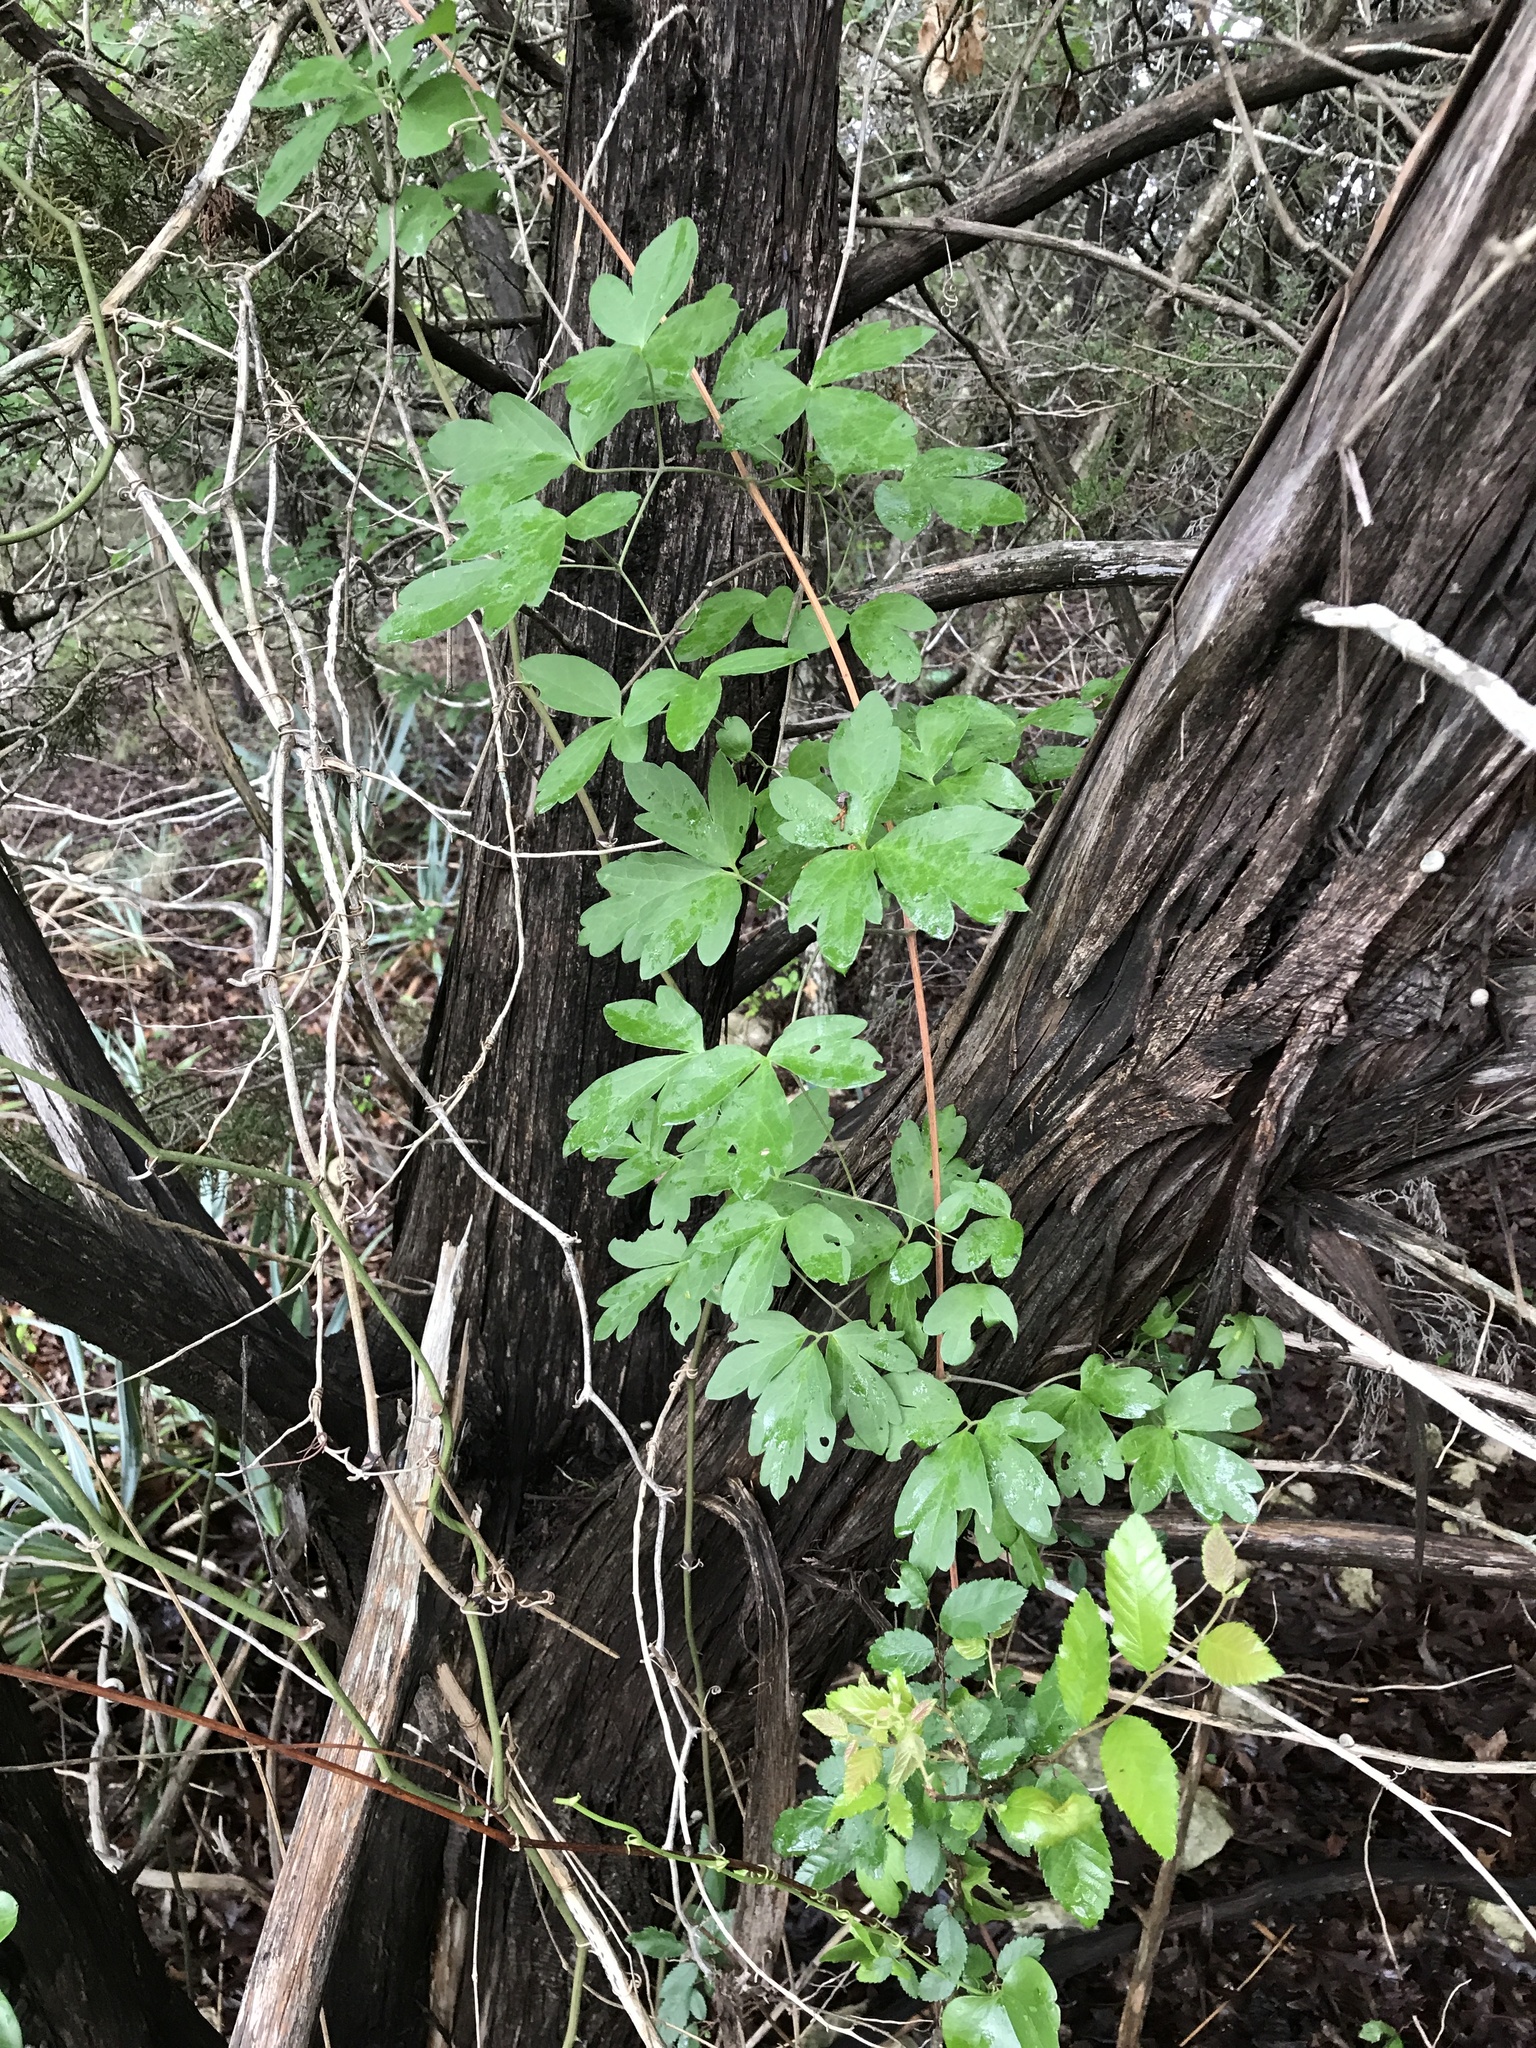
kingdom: Plantae
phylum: Tracheophyta
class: Magnoliopsida
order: Ranunculales
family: Ranunculaceae
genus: Clematis
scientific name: Clematis pitcheri
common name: Bellflower clematis
